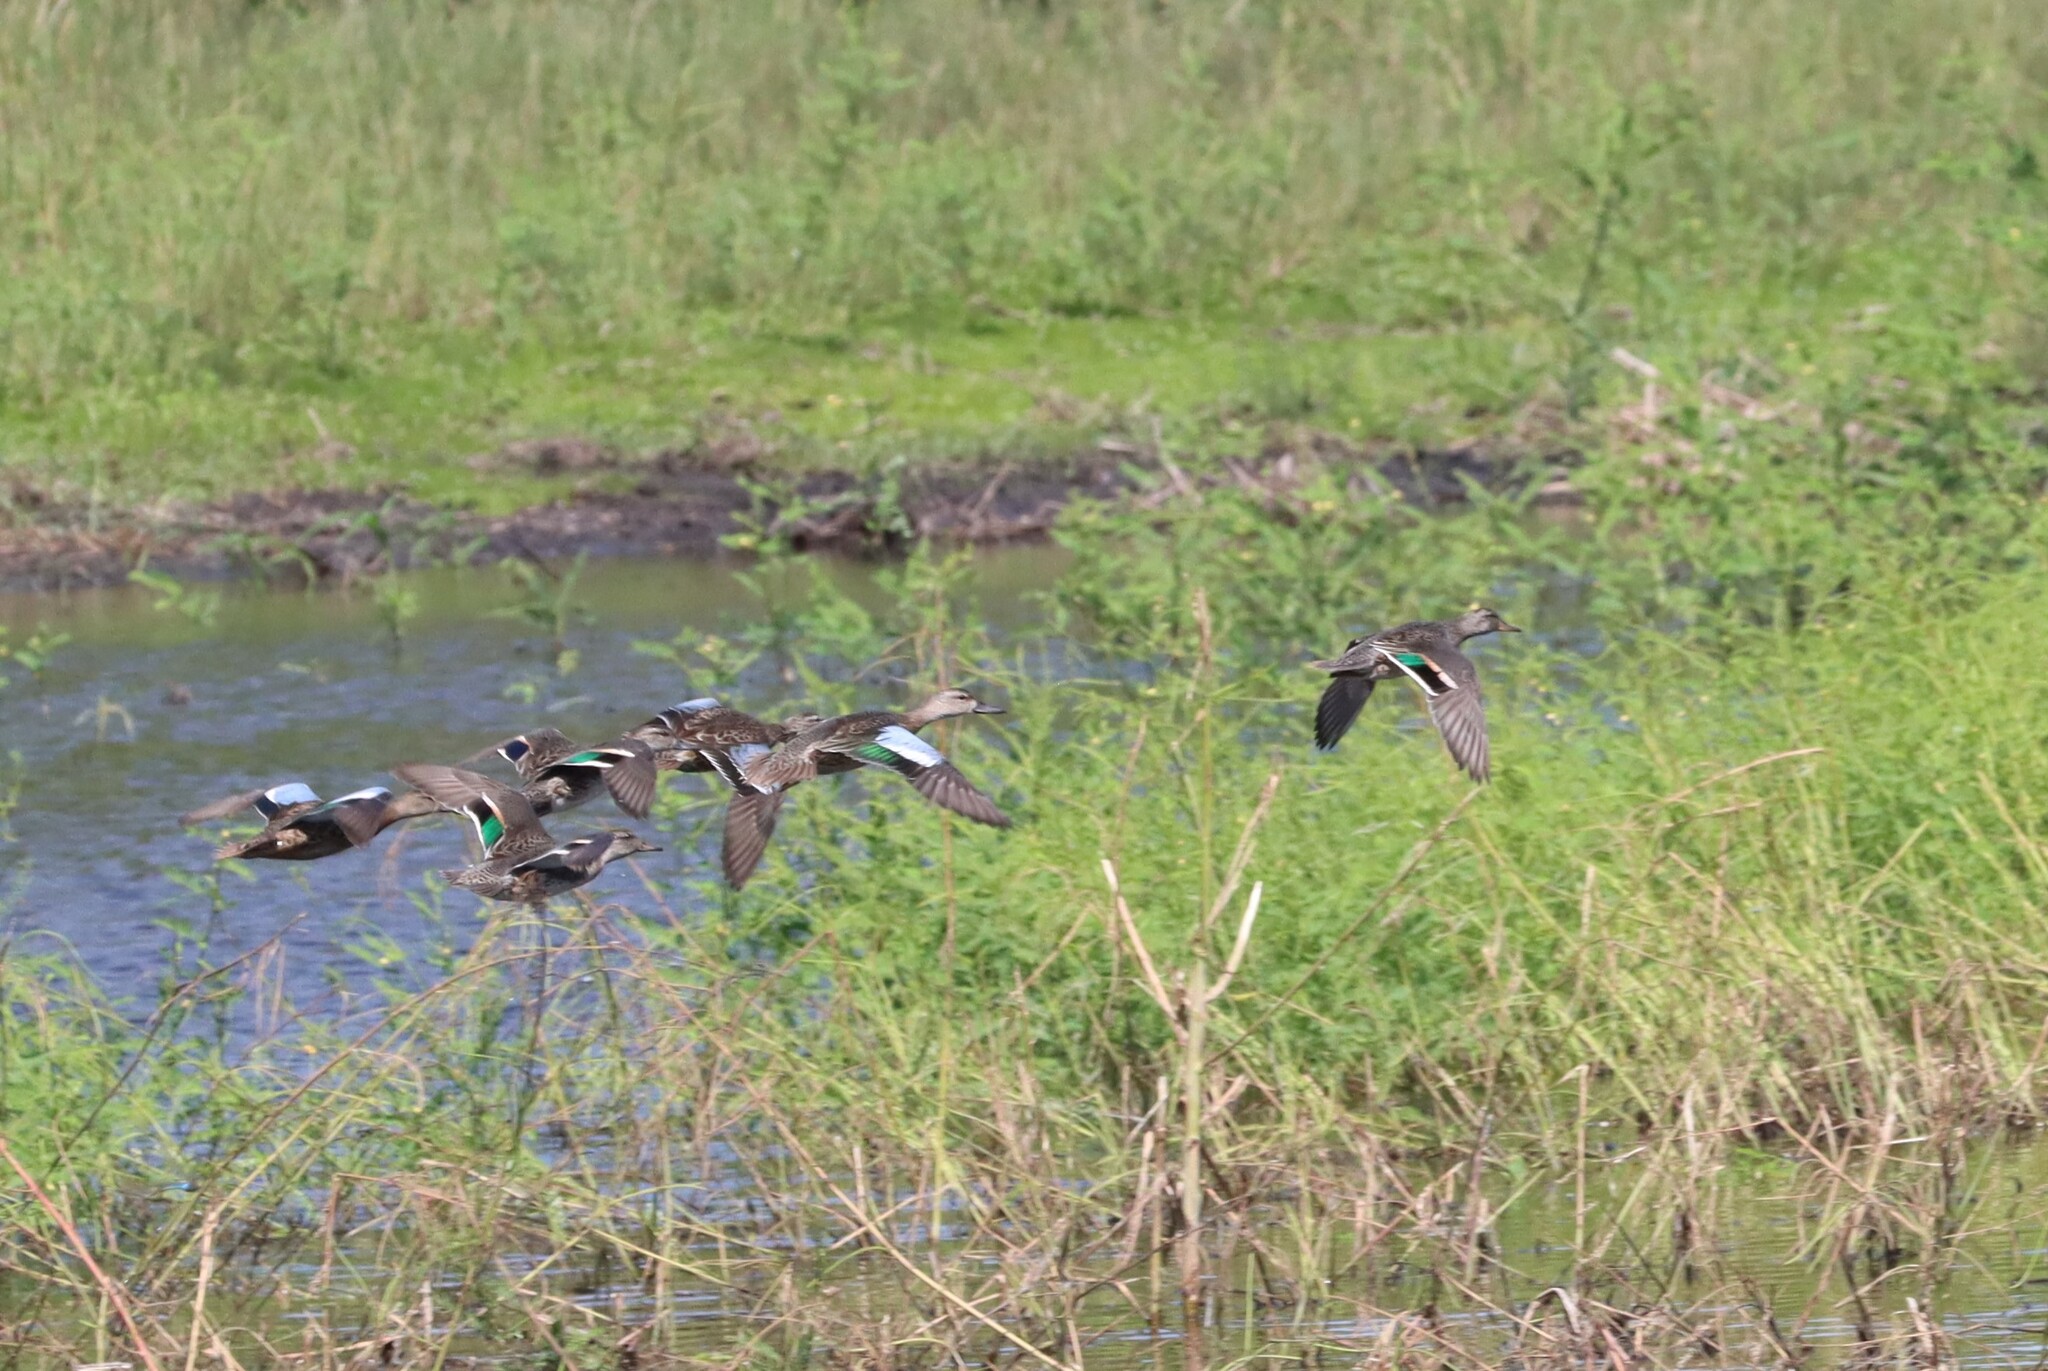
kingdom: Animalia
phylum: Chordata
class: Aves
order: Anseriformes
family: Anatidae
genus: Spatula
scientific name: Spatula discors
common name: Blue-winged teal
